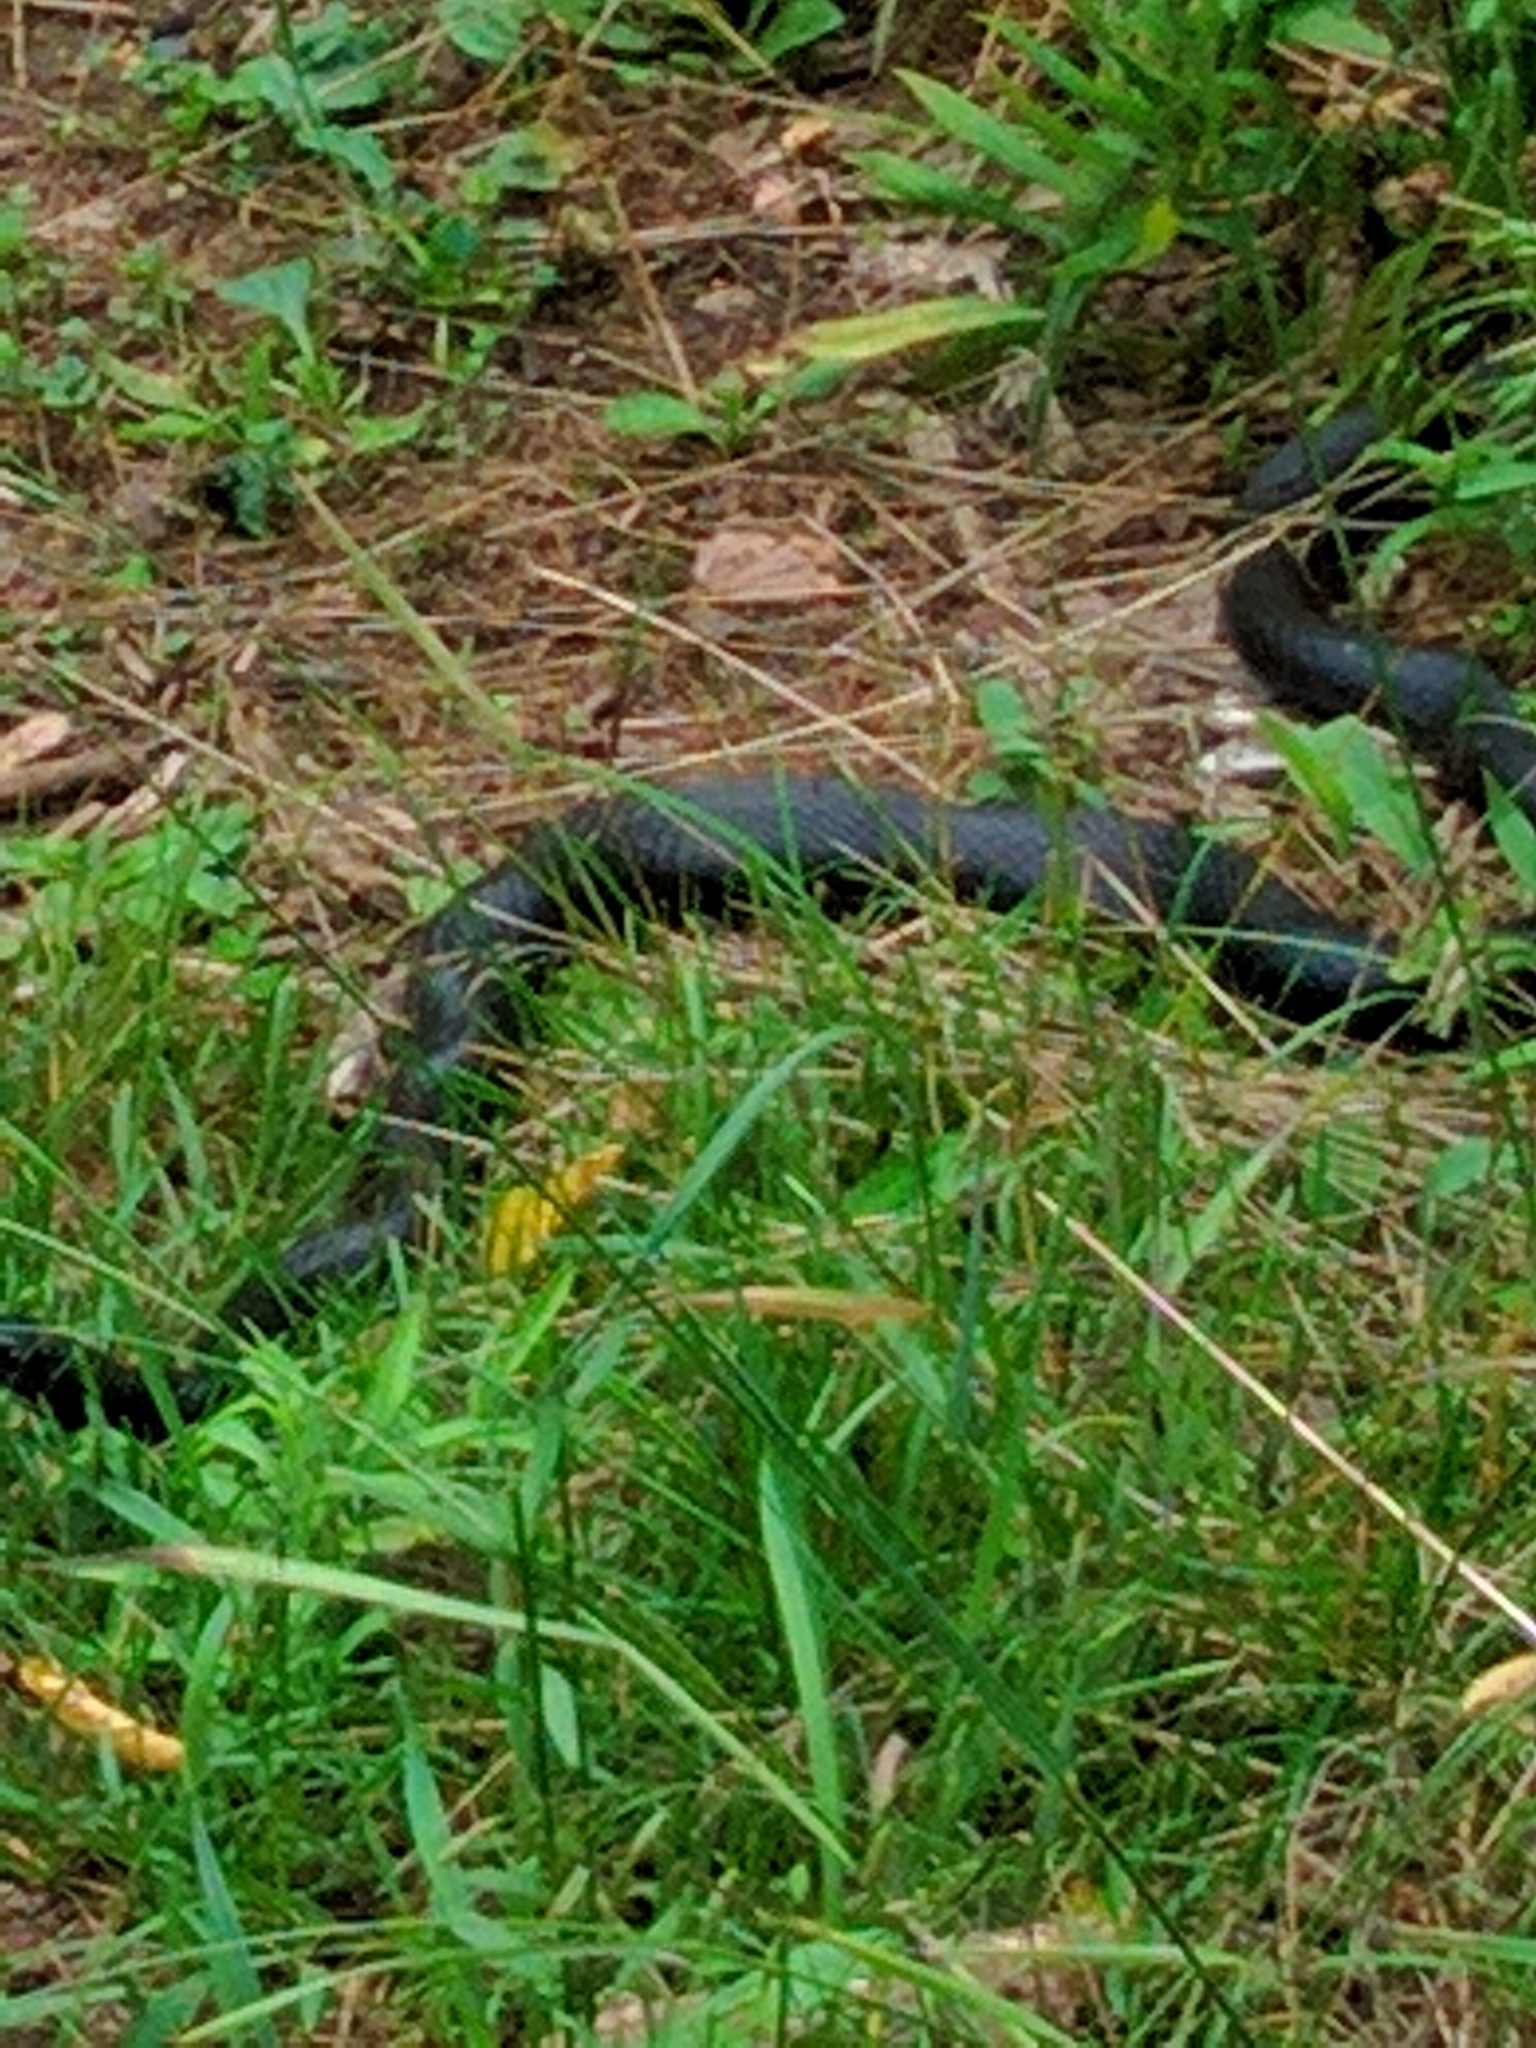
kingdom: Animalia
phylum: Chordata
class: Squamata
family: Colubridae
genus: Coluber
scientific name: Coluber constrictor
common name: Eastern racer
